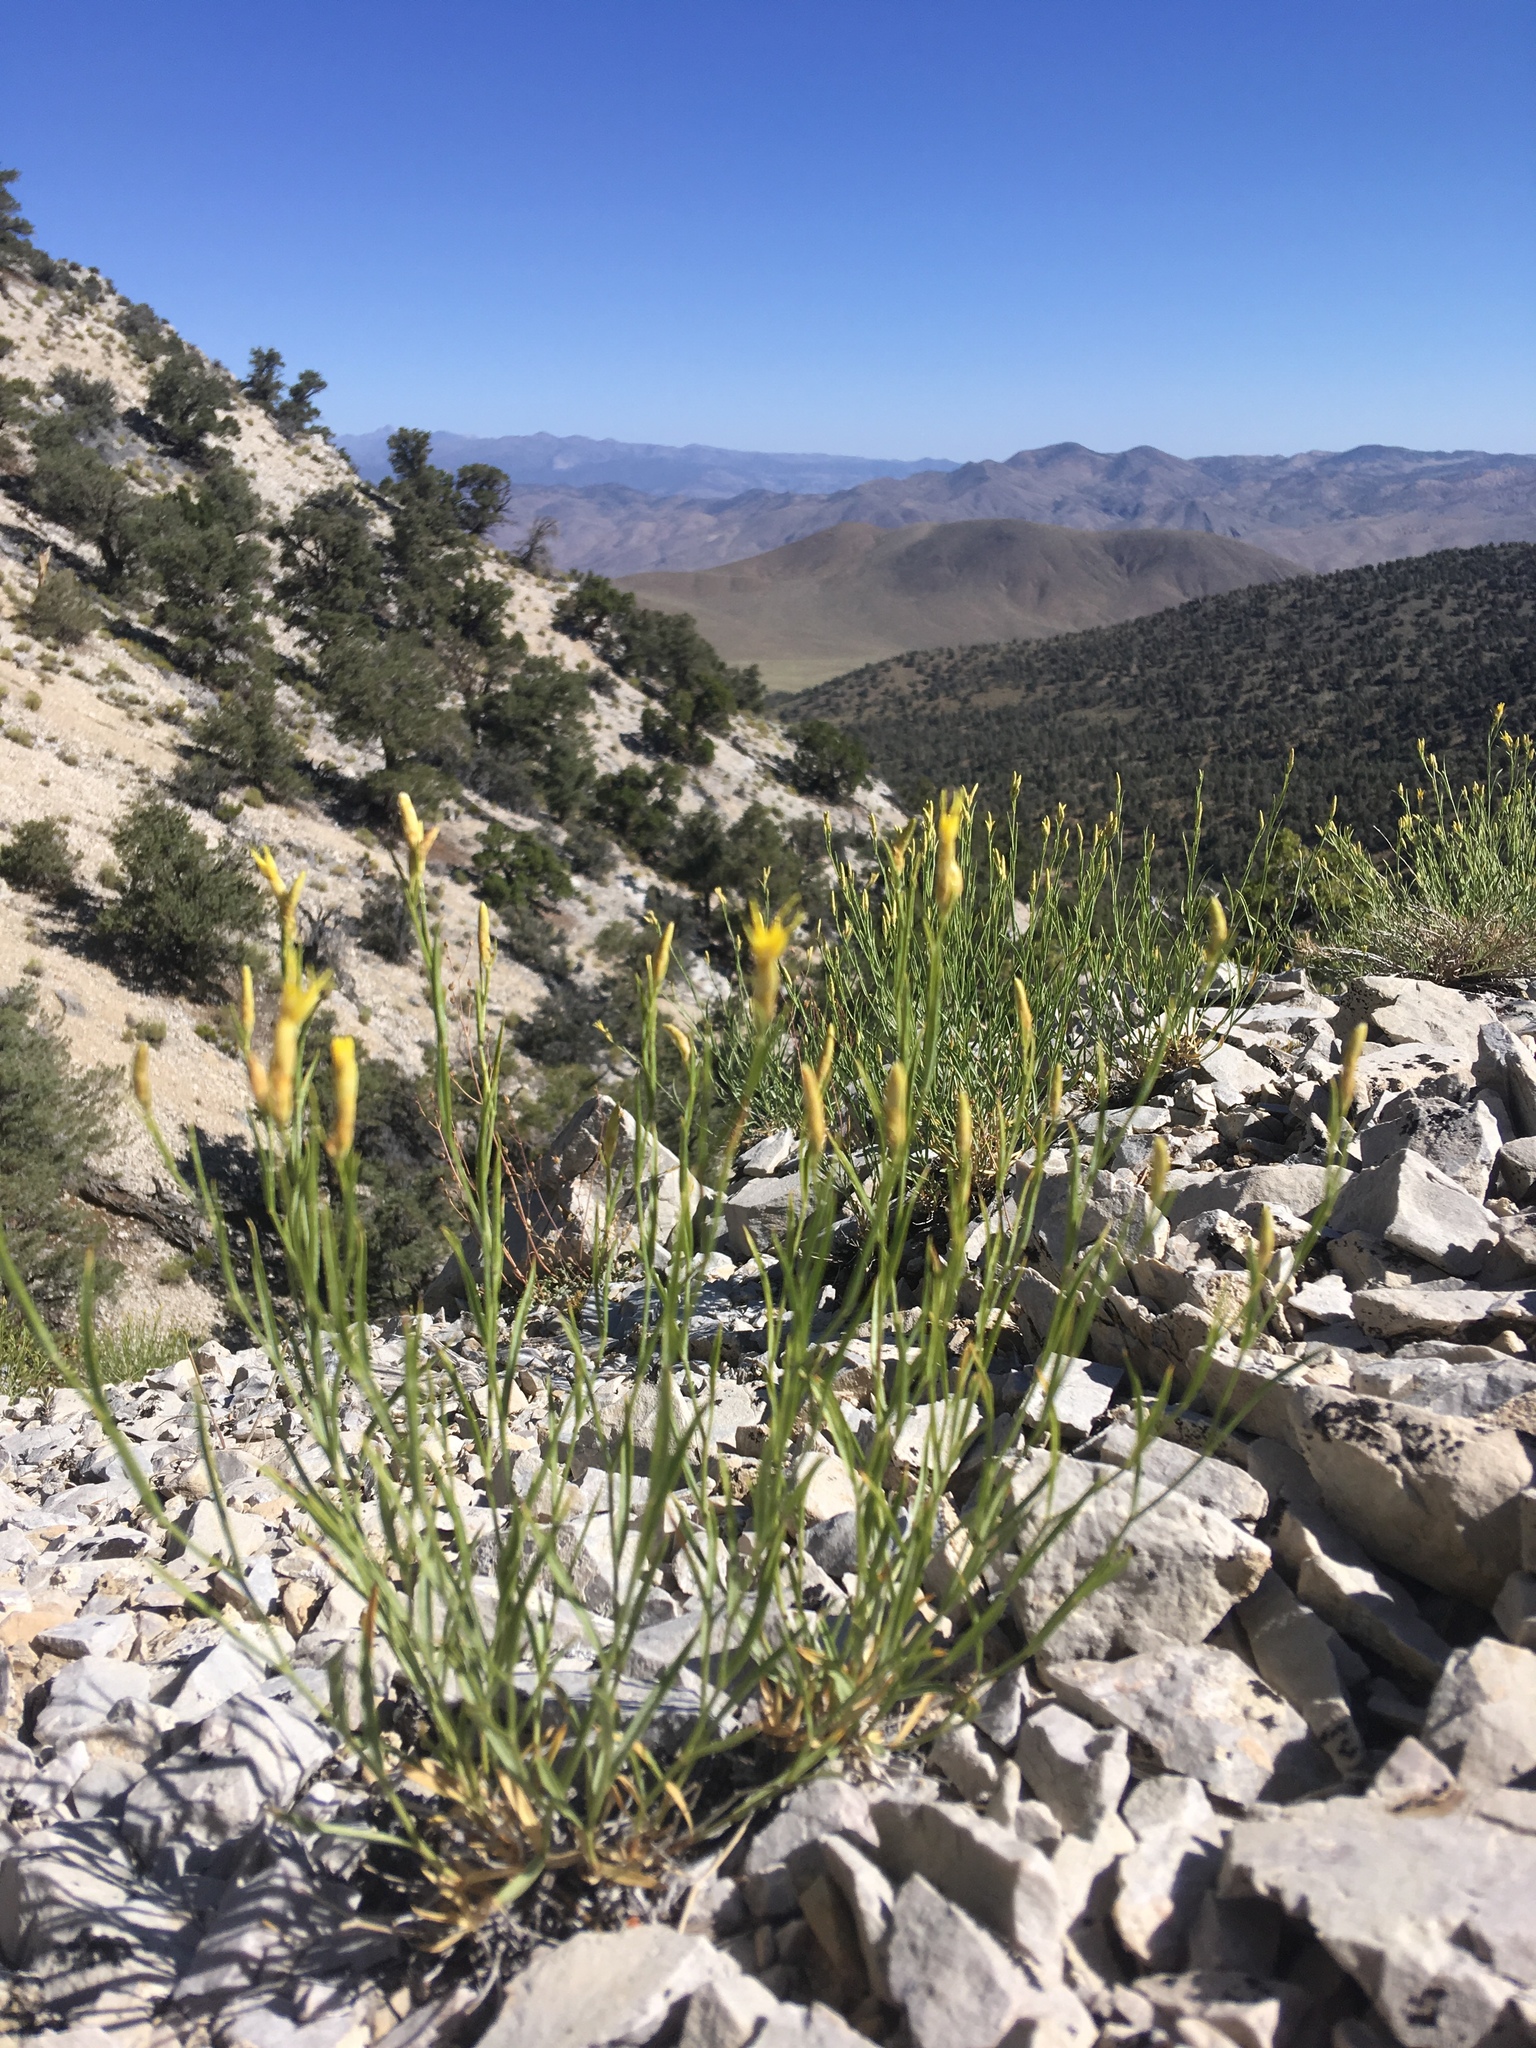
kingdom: Plantae
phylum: Tracheophyta
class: Magnoliopsida
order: Asterales
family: Asteraceae
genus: Cuniculotinus
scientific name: Cuniculotinus gramineus
